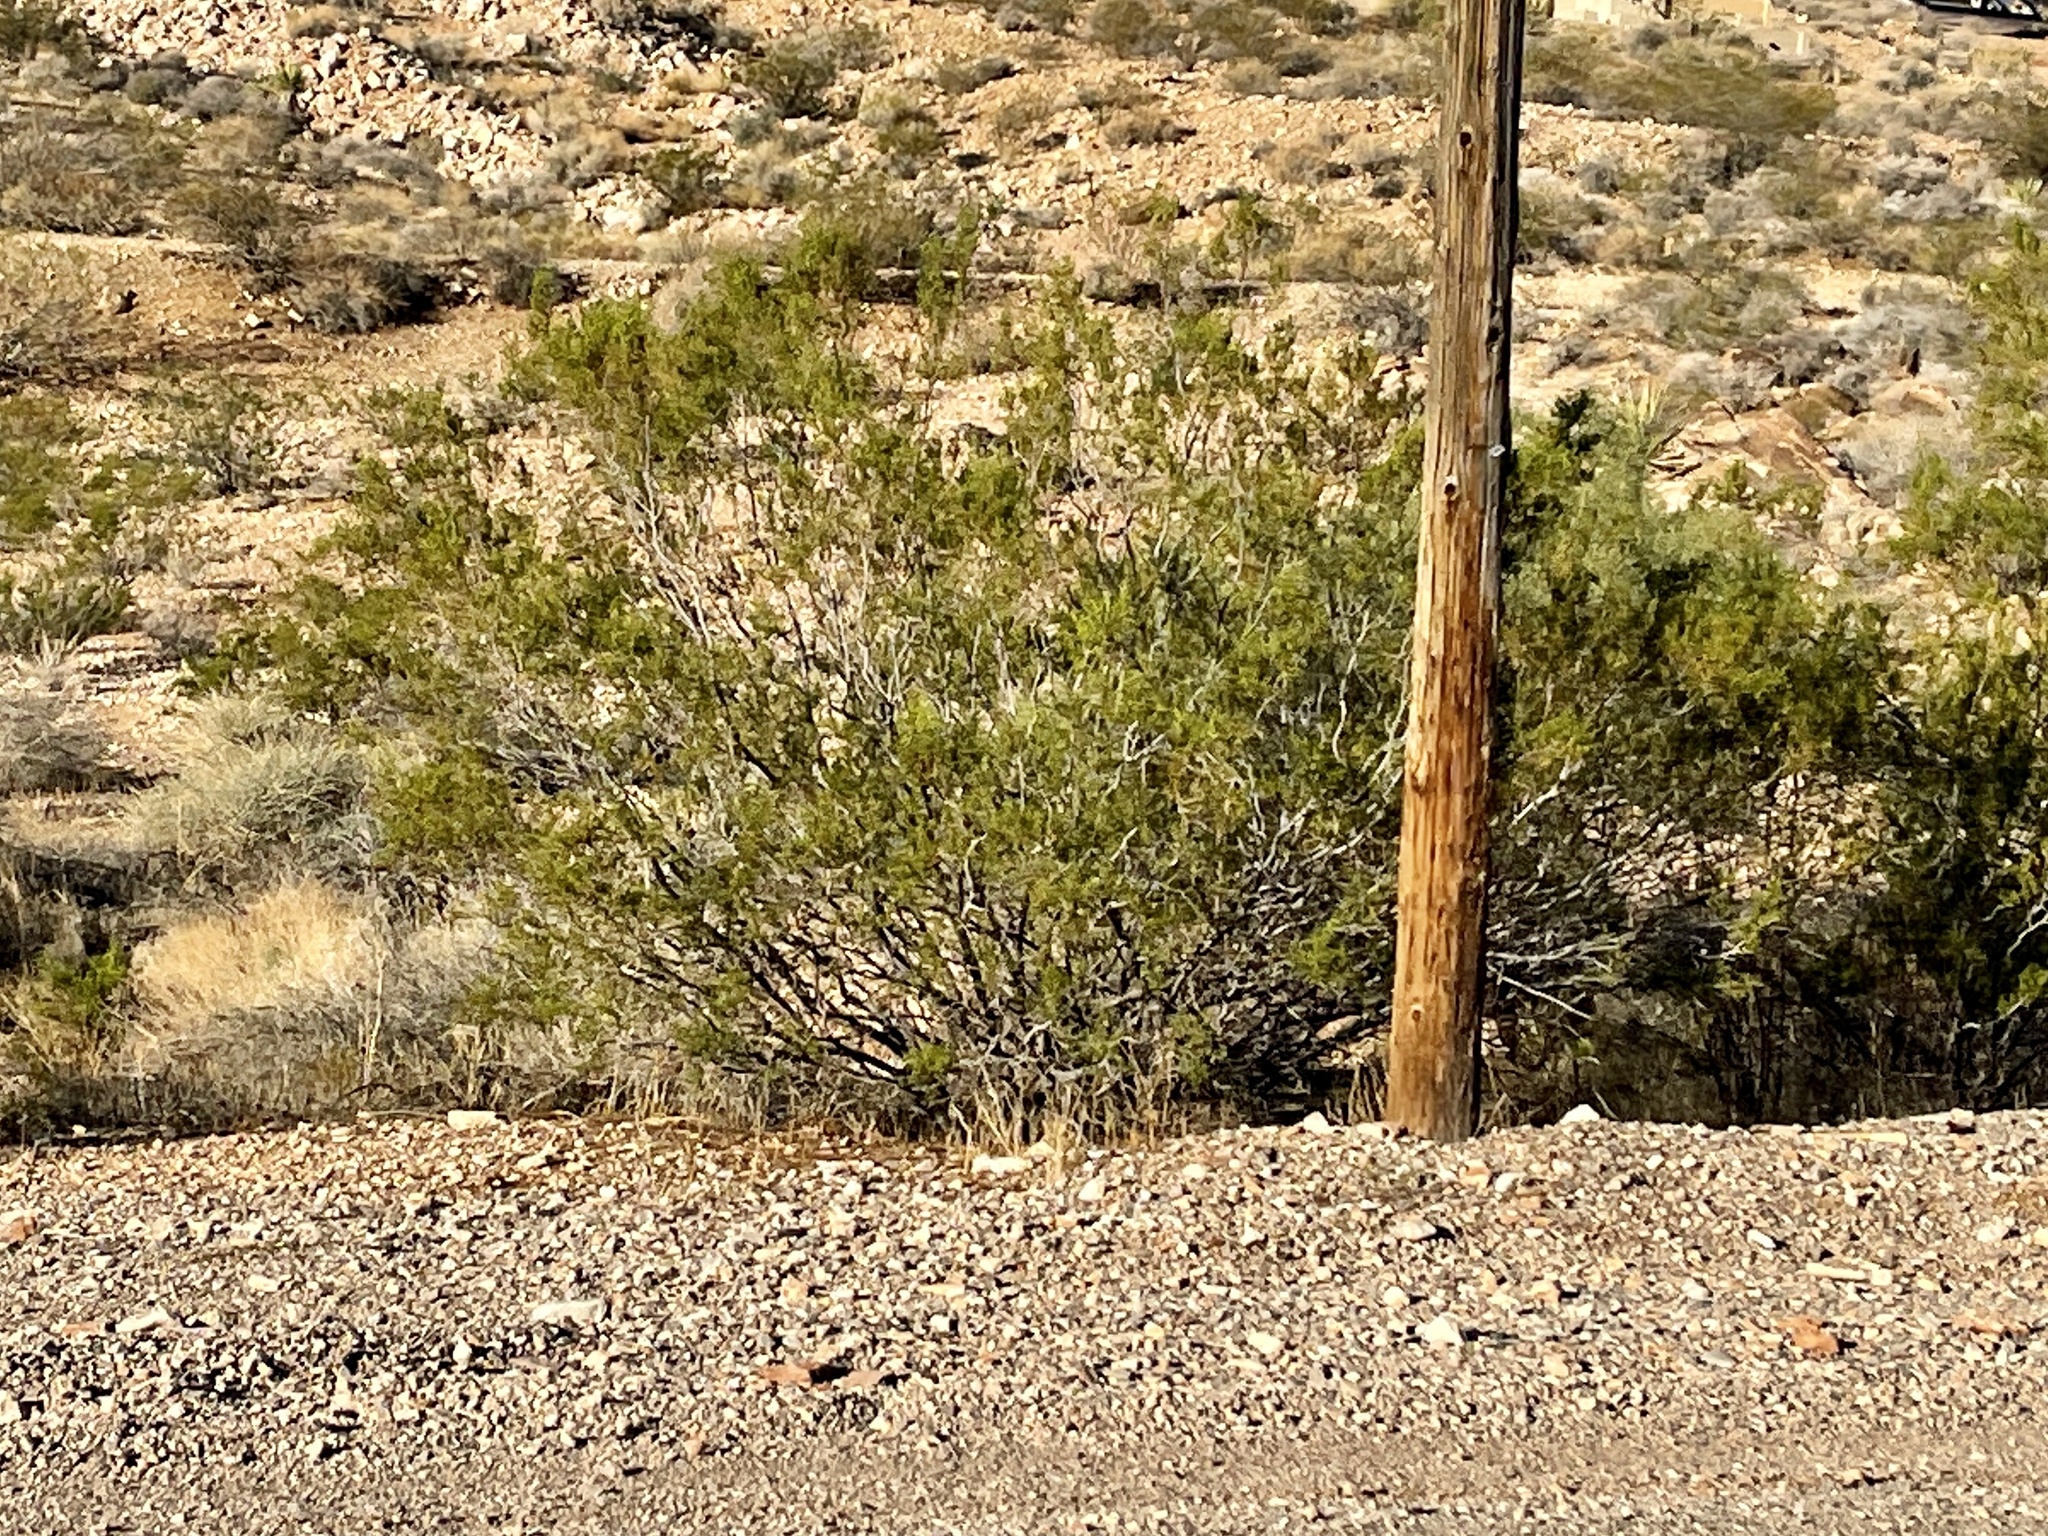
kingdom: Plantae
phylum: Tracheophyta
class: Magnoliopsida
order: Zygophyllales
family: Zygophyllaceae
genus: Larrea
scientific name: Larrea tridentata
